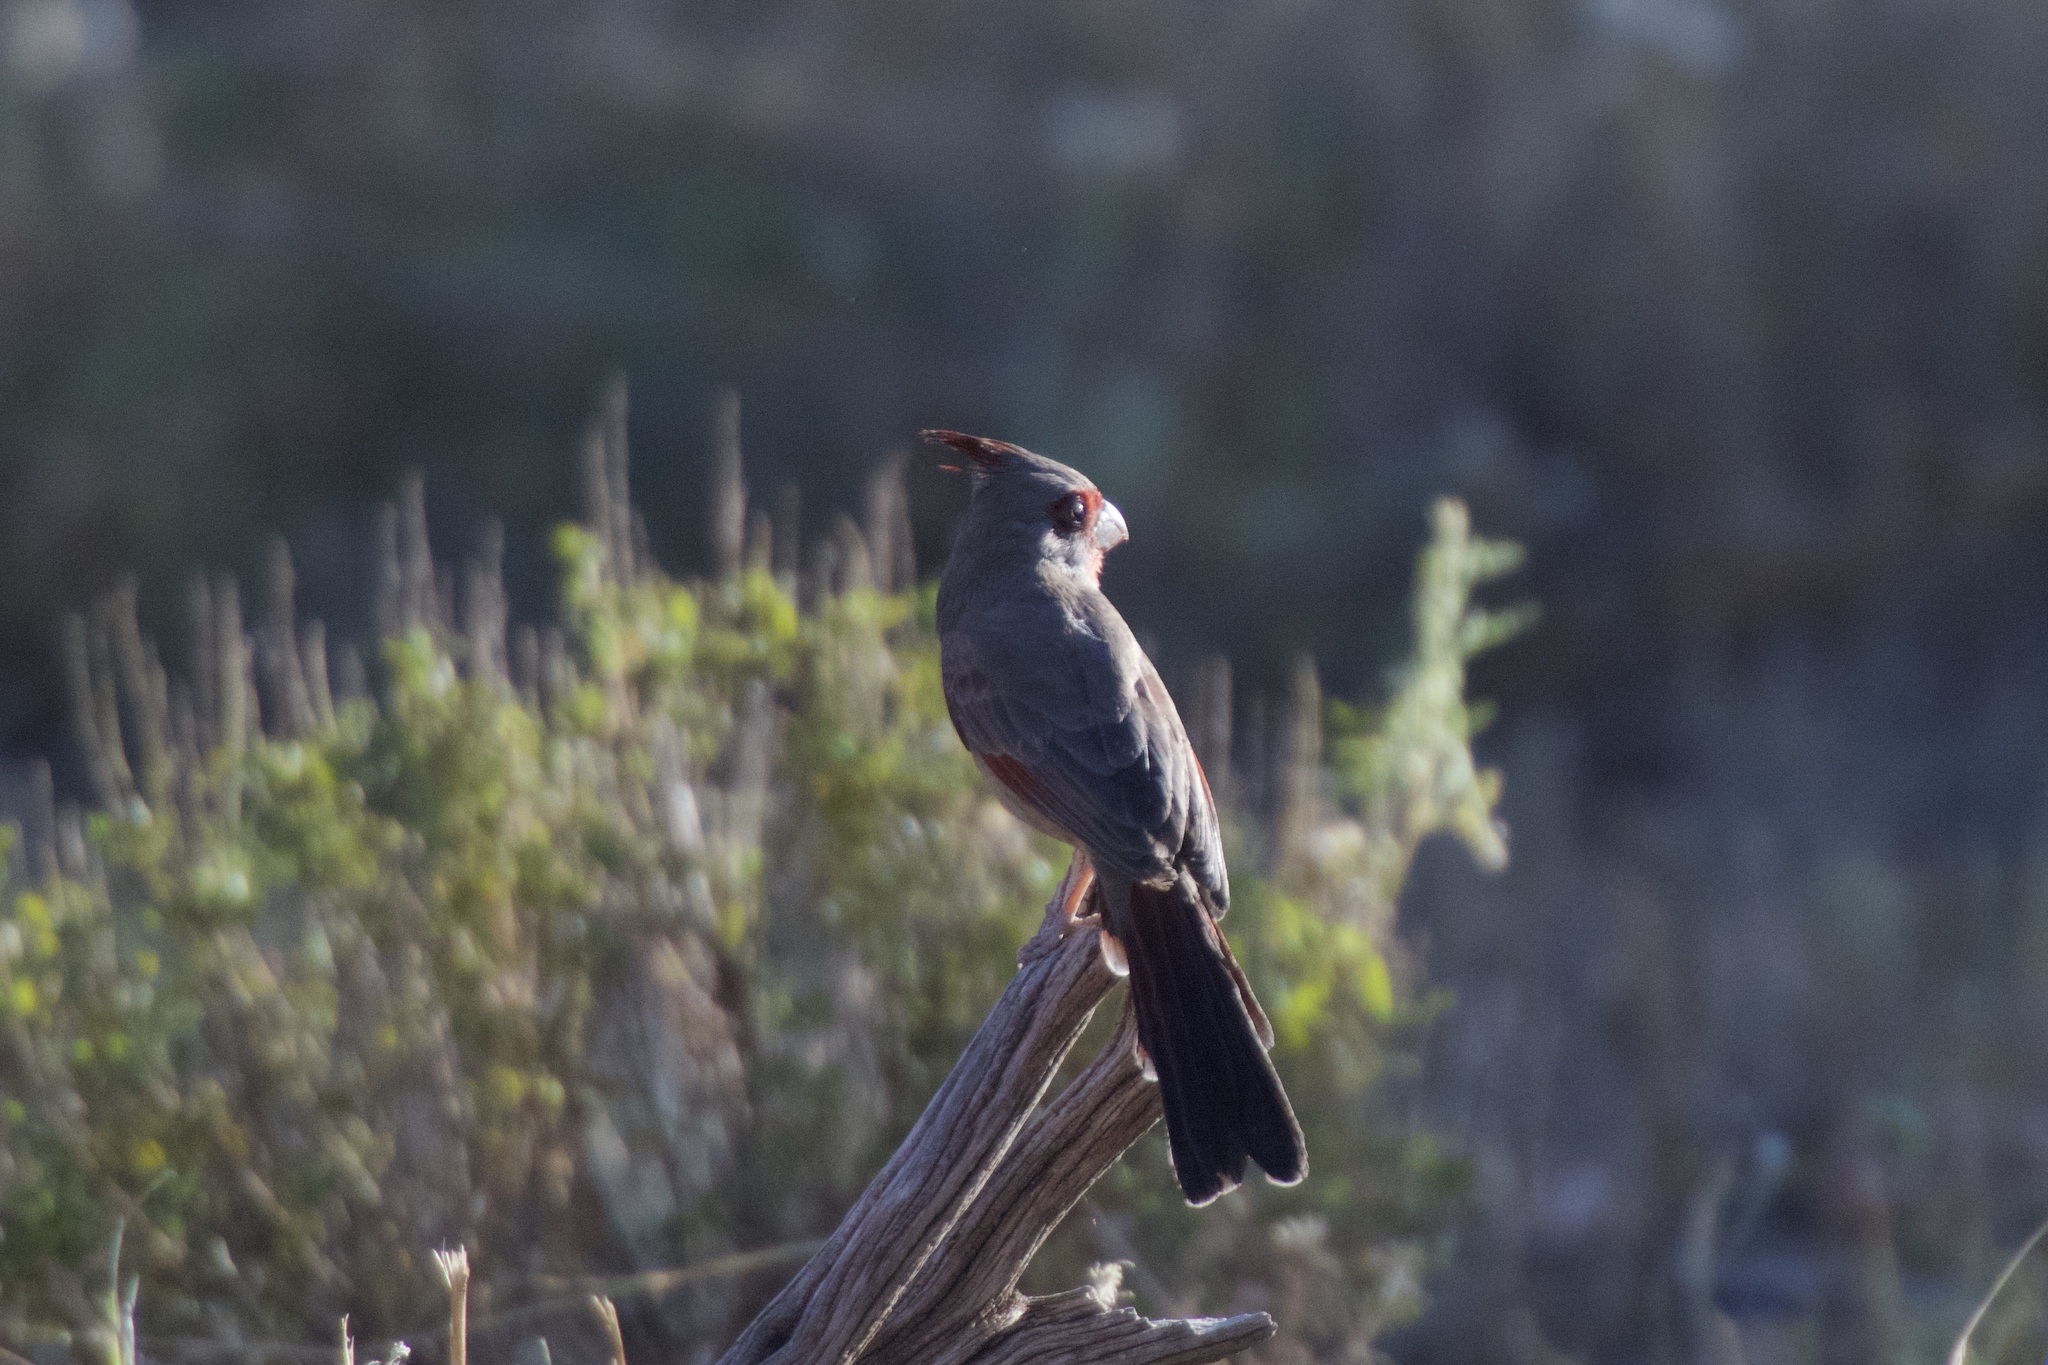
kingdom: Animalia
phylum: Chordata
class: Aves
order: Passeriformes
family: Cardinalidae
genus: Cardinalis
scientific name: Cardinalis sinuatus
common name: Pyrrhuloxia
